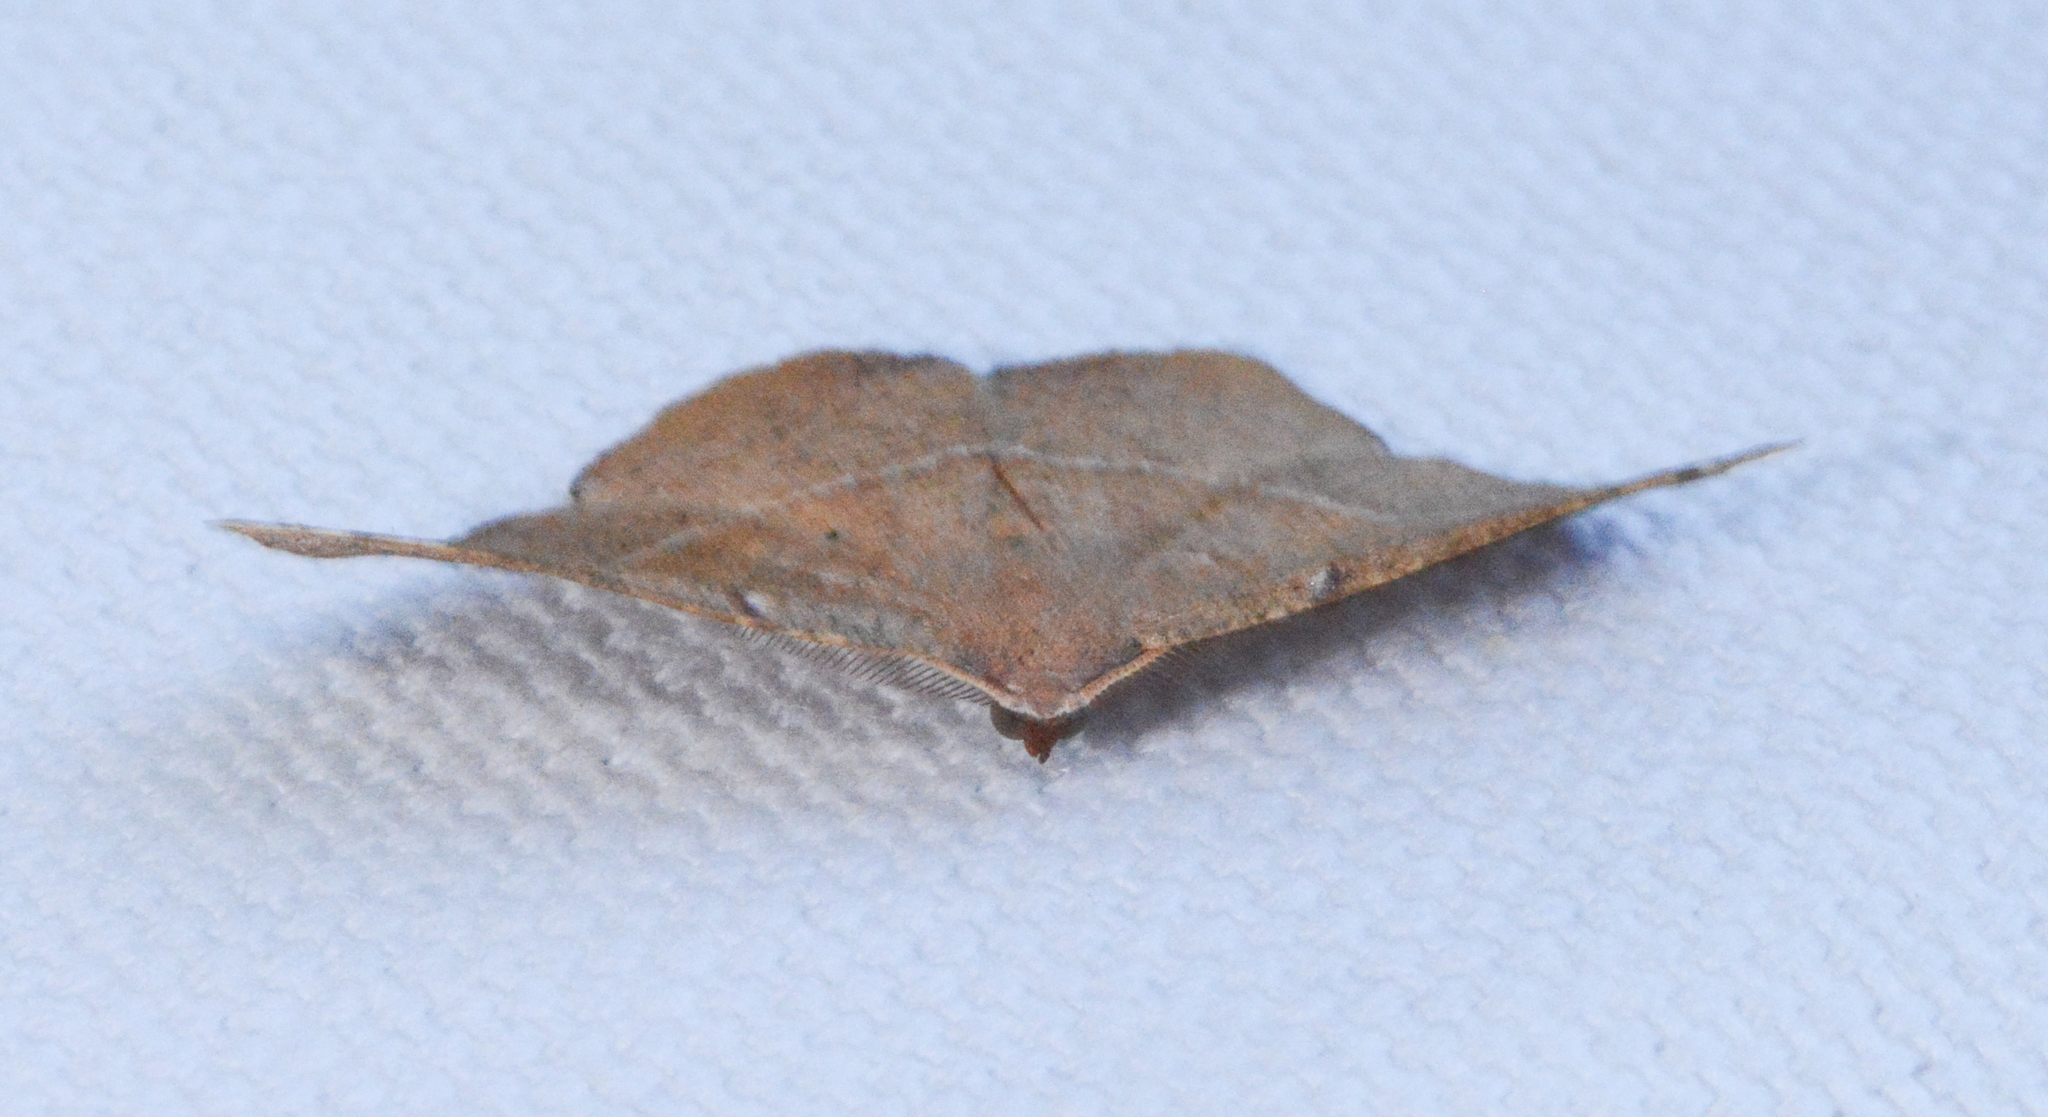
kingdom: Animalia
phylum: Arthropoda
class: Insecta
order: Lepidoptera
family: Geometridae
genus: Patalene
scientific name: Patalene olyzonaria
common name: Juniper geometer moth
